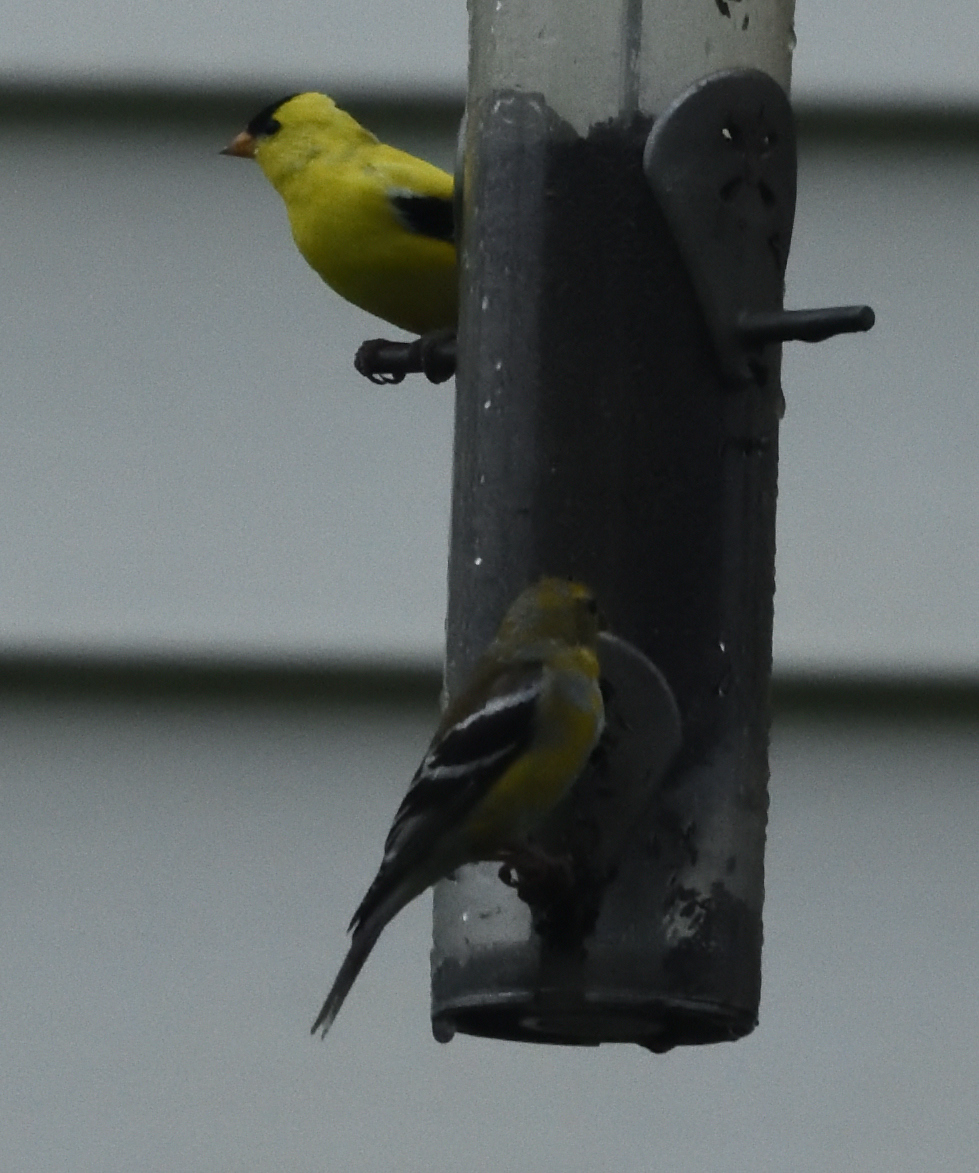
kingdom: Animalia
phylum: Chordata
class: Aves
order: Passeriformes
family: Fringillidae
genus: Spinus
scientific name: Spinus tristis
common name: American goldfinch
